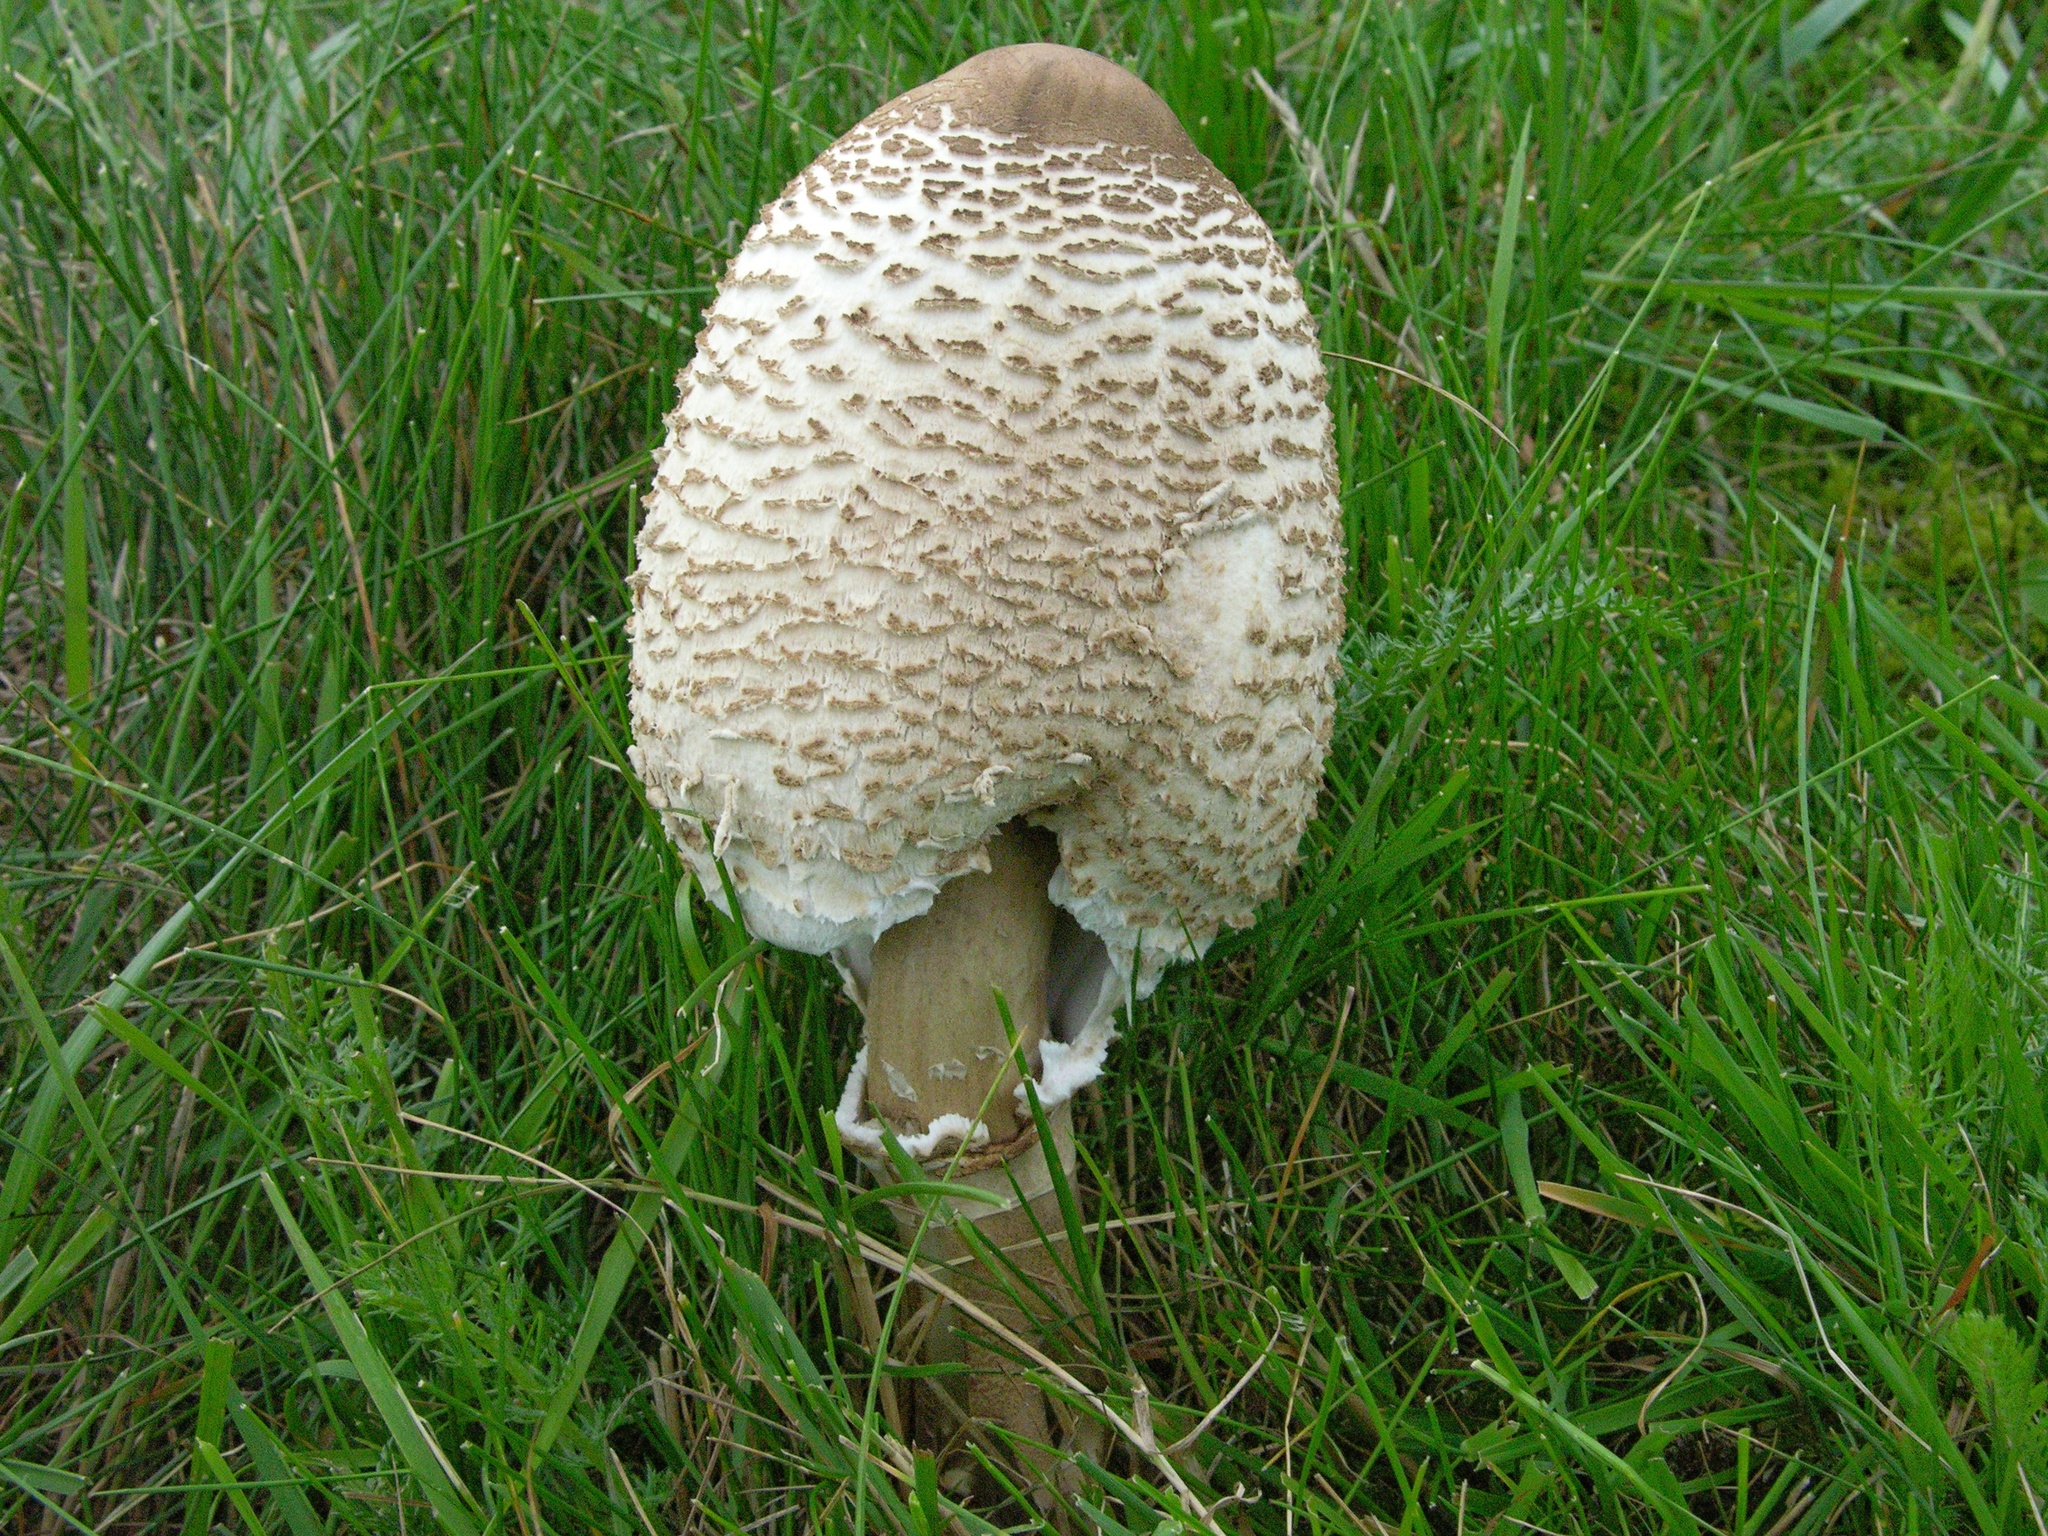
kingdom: Fungi
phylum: Basidiomycota
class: Agaricomycetes
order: Agaricales
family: Agaricaceae
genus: Macrolepiota
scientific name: Macrolepiota procera
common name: Parasol
